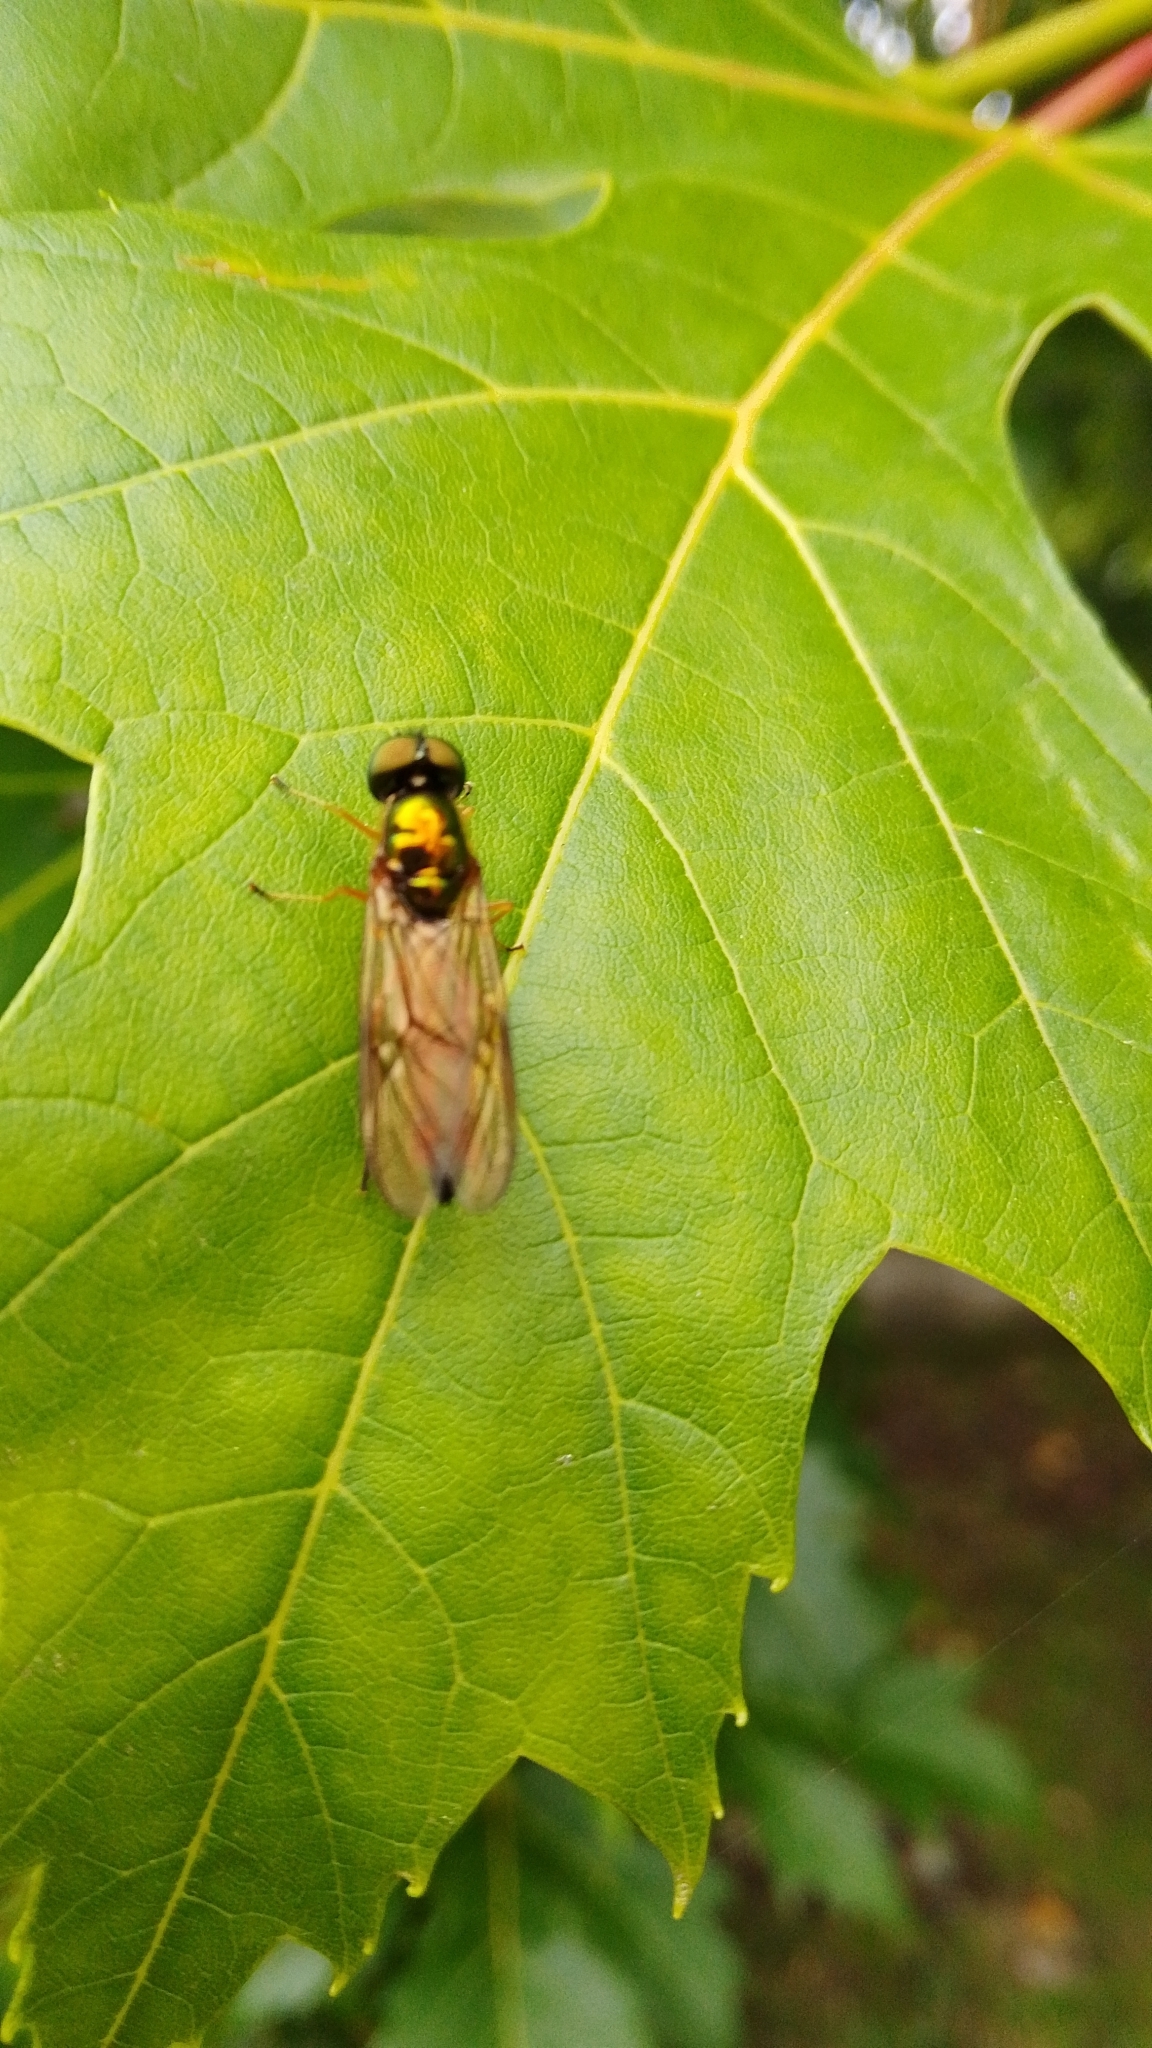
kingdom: Animalia
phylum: Arthropoda
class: Insecta
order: Diptera
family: Stratiomyidae
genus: Sargus
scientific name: Sargus bipunctatus
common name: Twin-spot centurion
